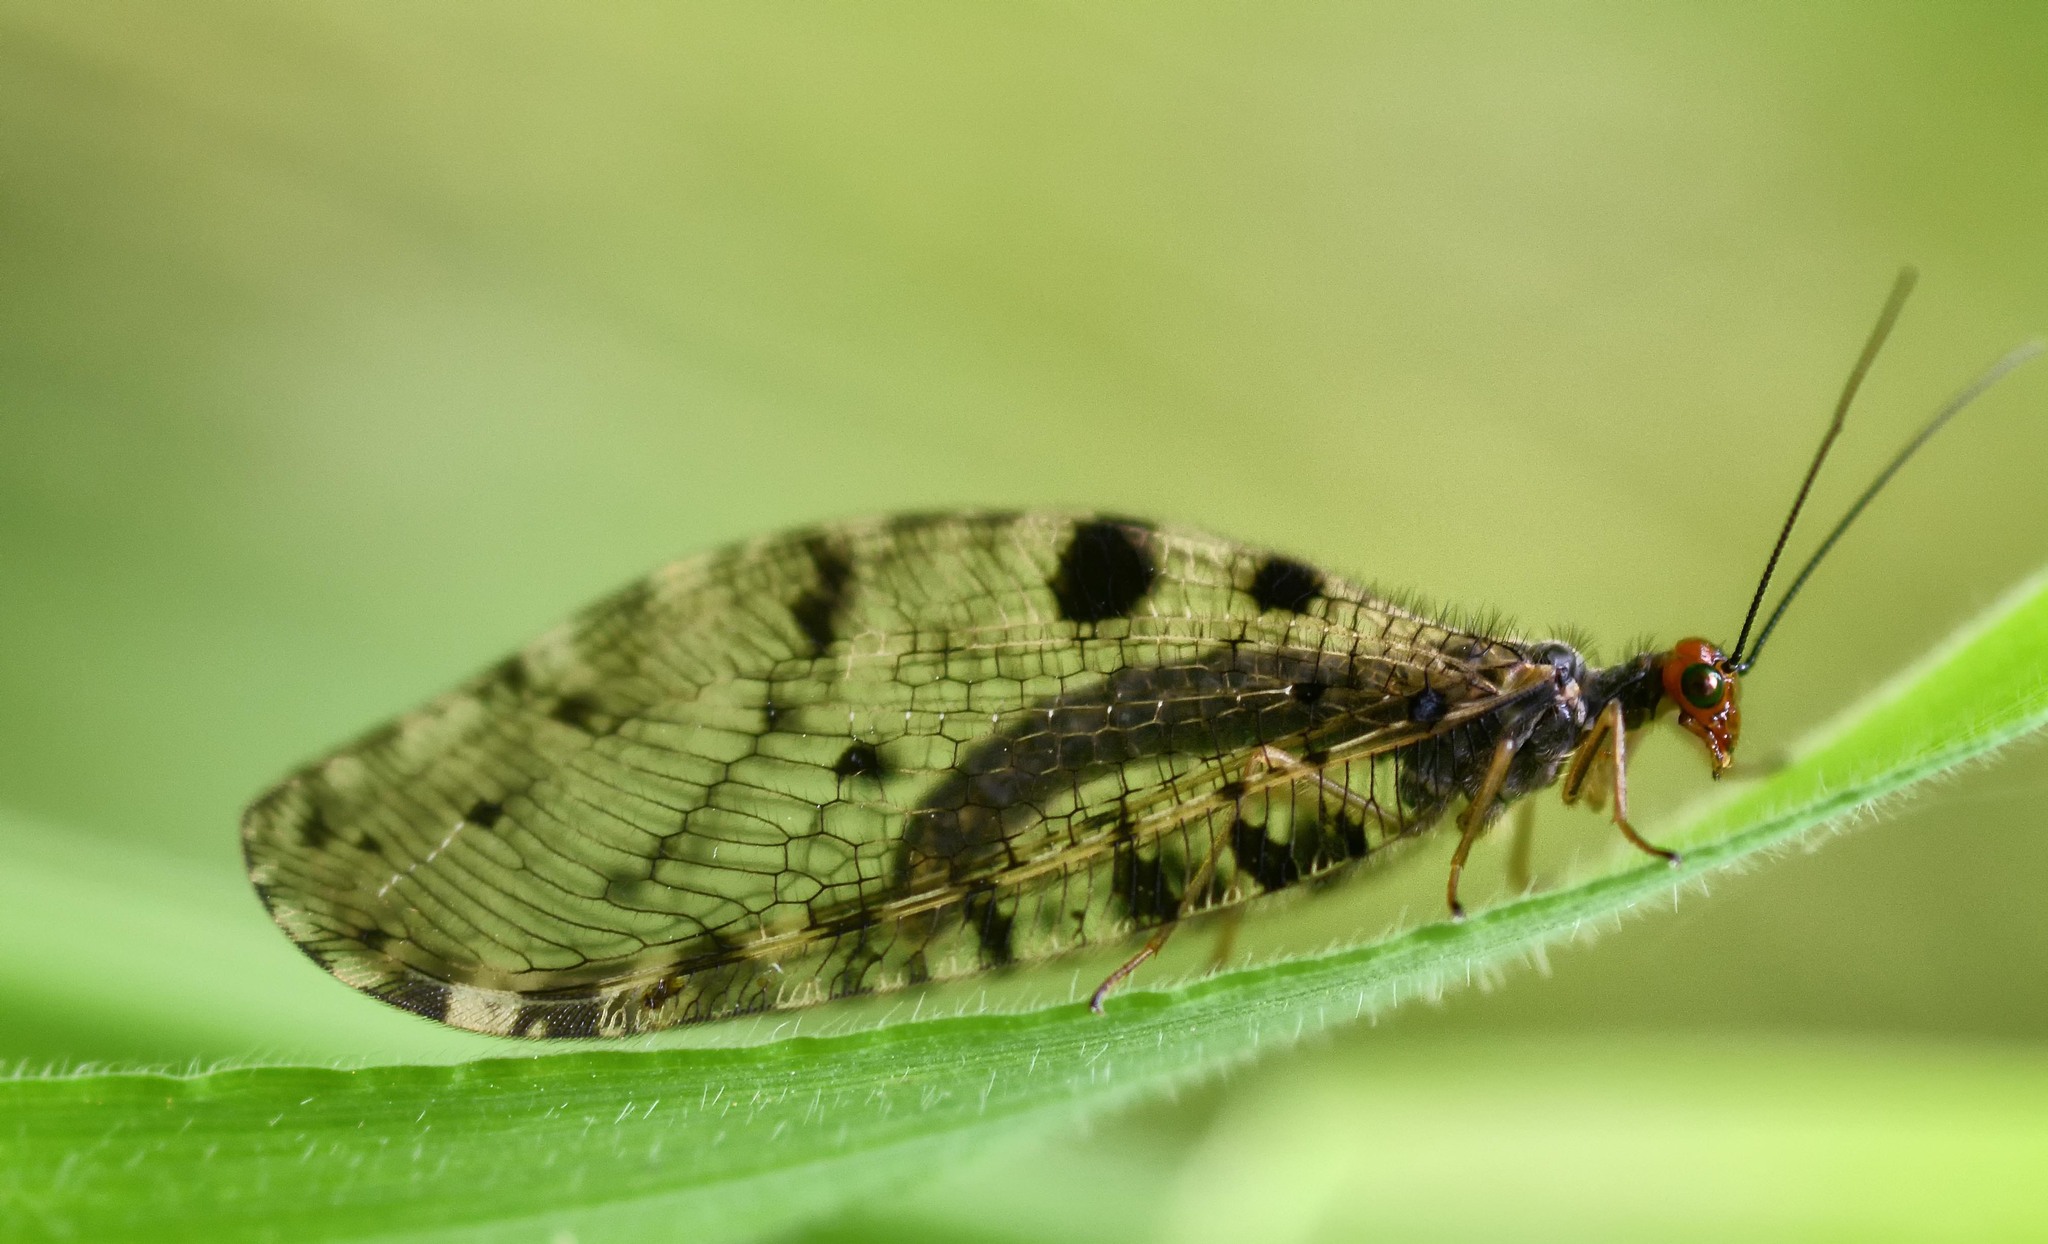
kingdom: Animalia
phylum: Arthropoda
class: Insecta
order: Neuroptera
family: Osmylidae
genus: Osmylus
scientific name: Osmylus fulvicephalus
